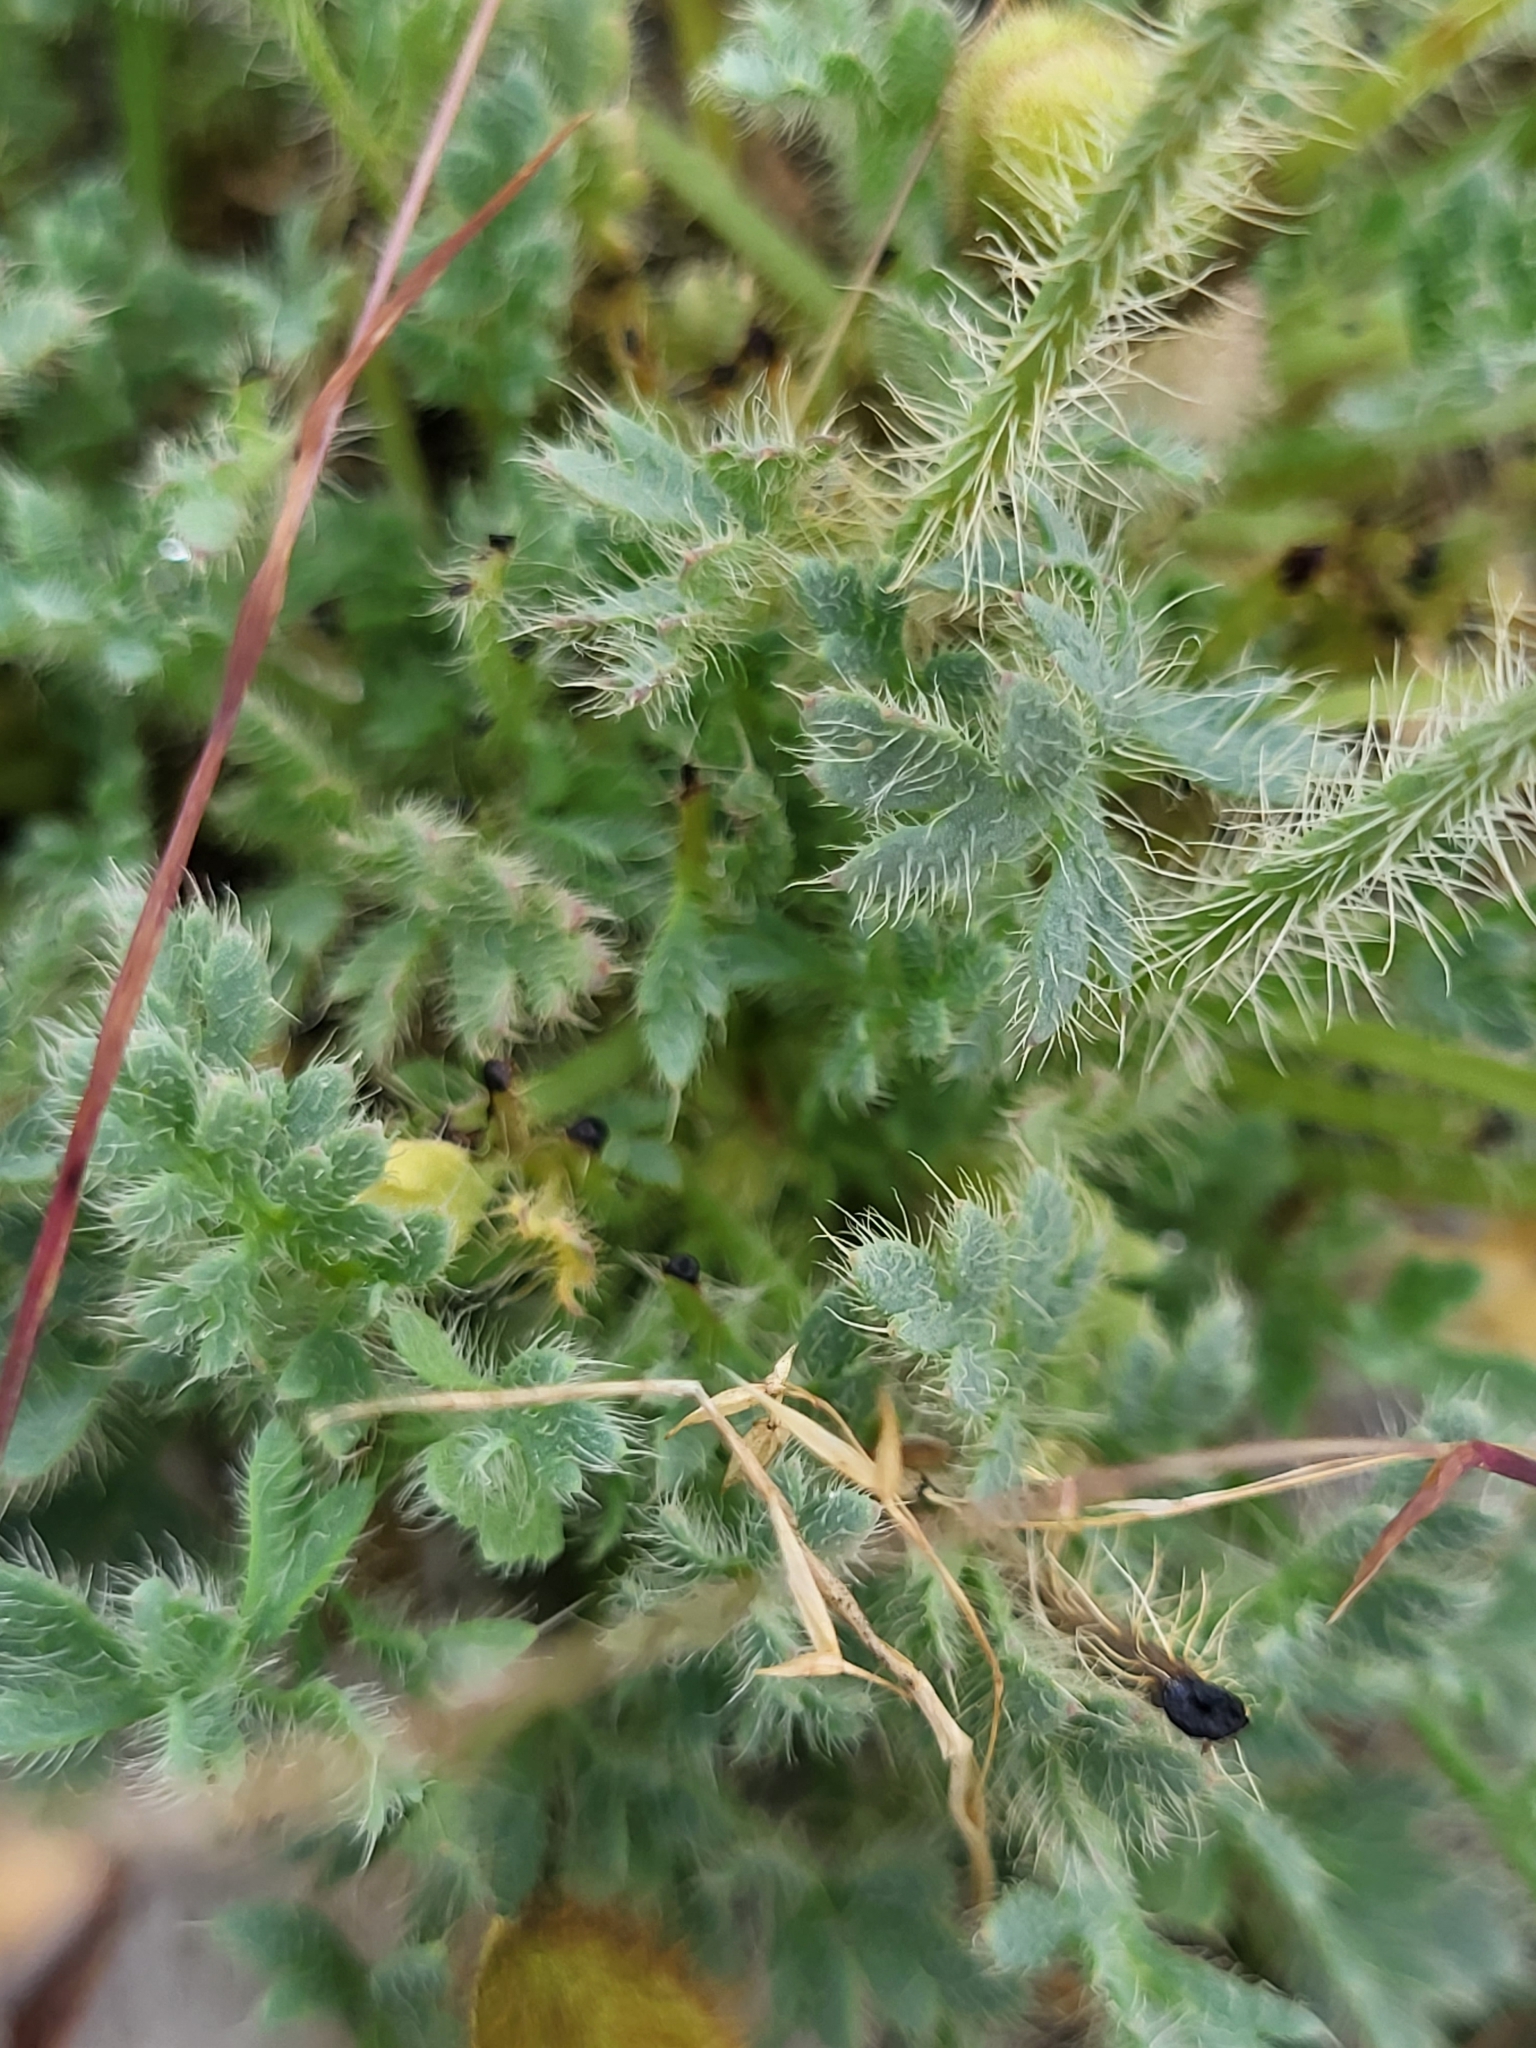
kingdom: Plantae
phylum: Tracheophyta
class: Magnoliopsida
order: Ranunculales
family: Papaveraceae
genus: Papaver
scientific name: Papaver alpinum
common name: Austrian poppy
